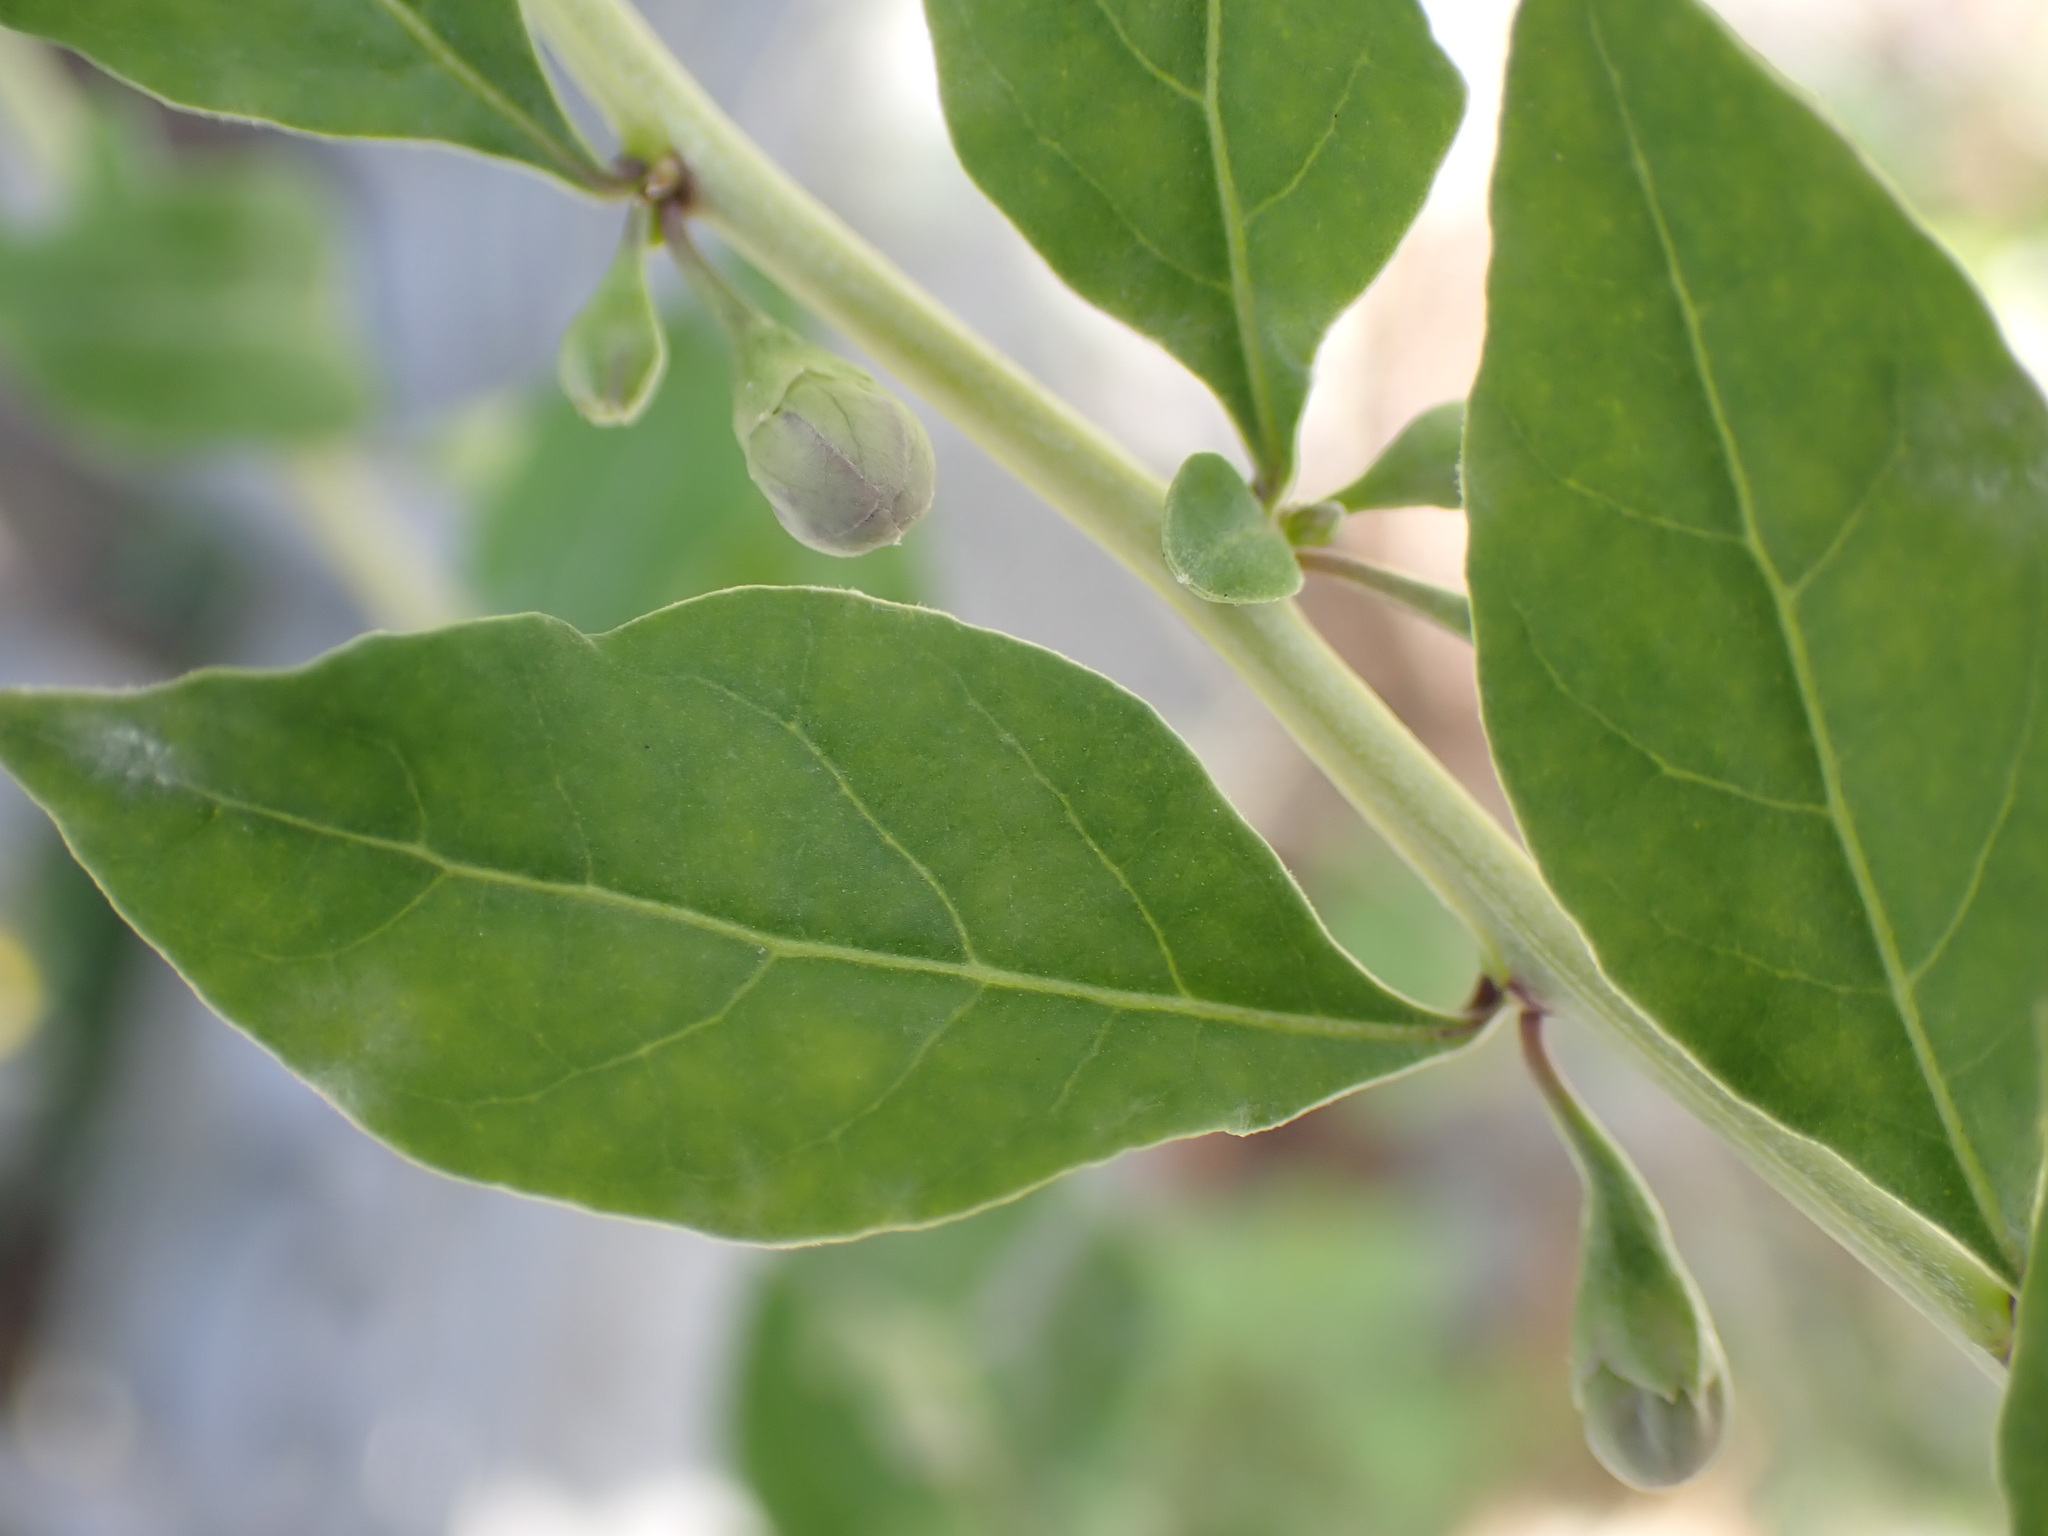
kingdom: Plantae
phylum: Tracheophyta
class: Magnoliopsida
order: Solanales
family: Solanaceae
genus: Lycium
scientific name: Lycium barbarum
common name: Duke of argyll's teaplant
